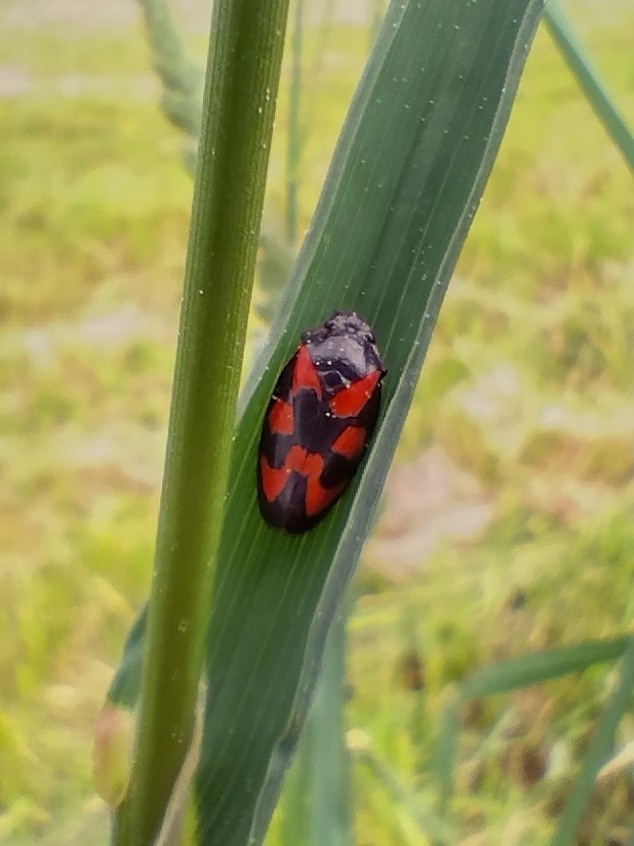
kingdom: Animalia
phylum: Arthropoda
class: Insecta
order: Hemiptera
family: Cercopidae
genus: Cercopis
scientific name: Cercopis vulnerata
